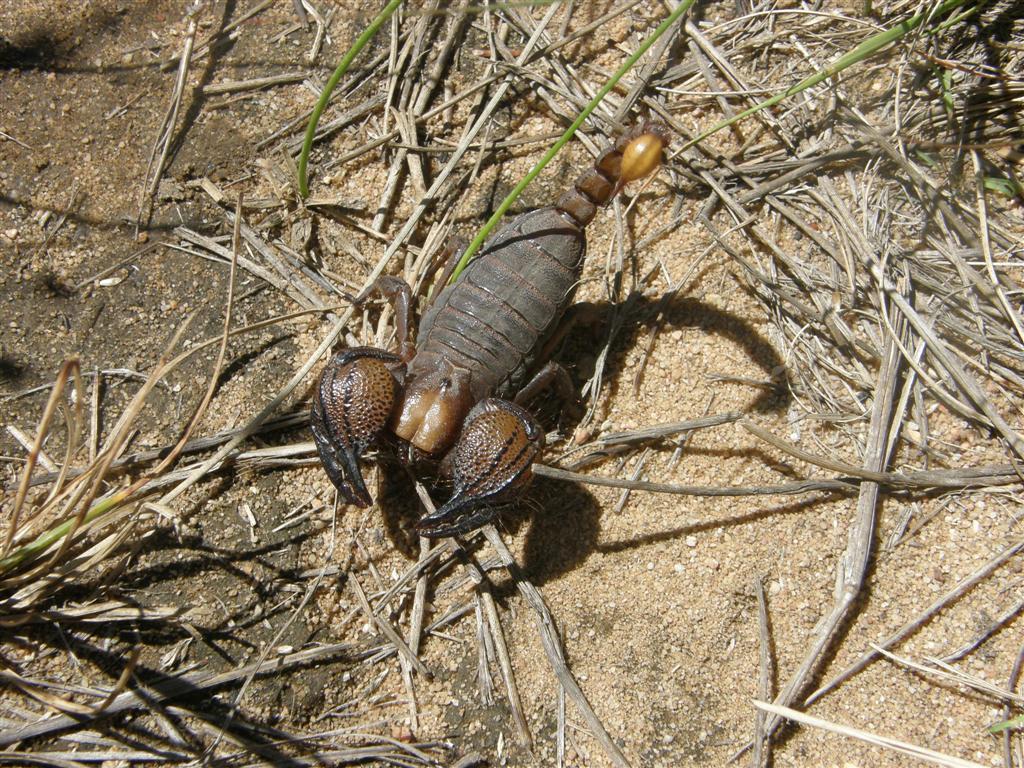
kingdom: Animalia
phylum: Arthropoda
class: Arachnida
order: Scorpiones
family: Scorpionidae
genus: Opistophthalmus
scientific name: Opistophthalmus macer
